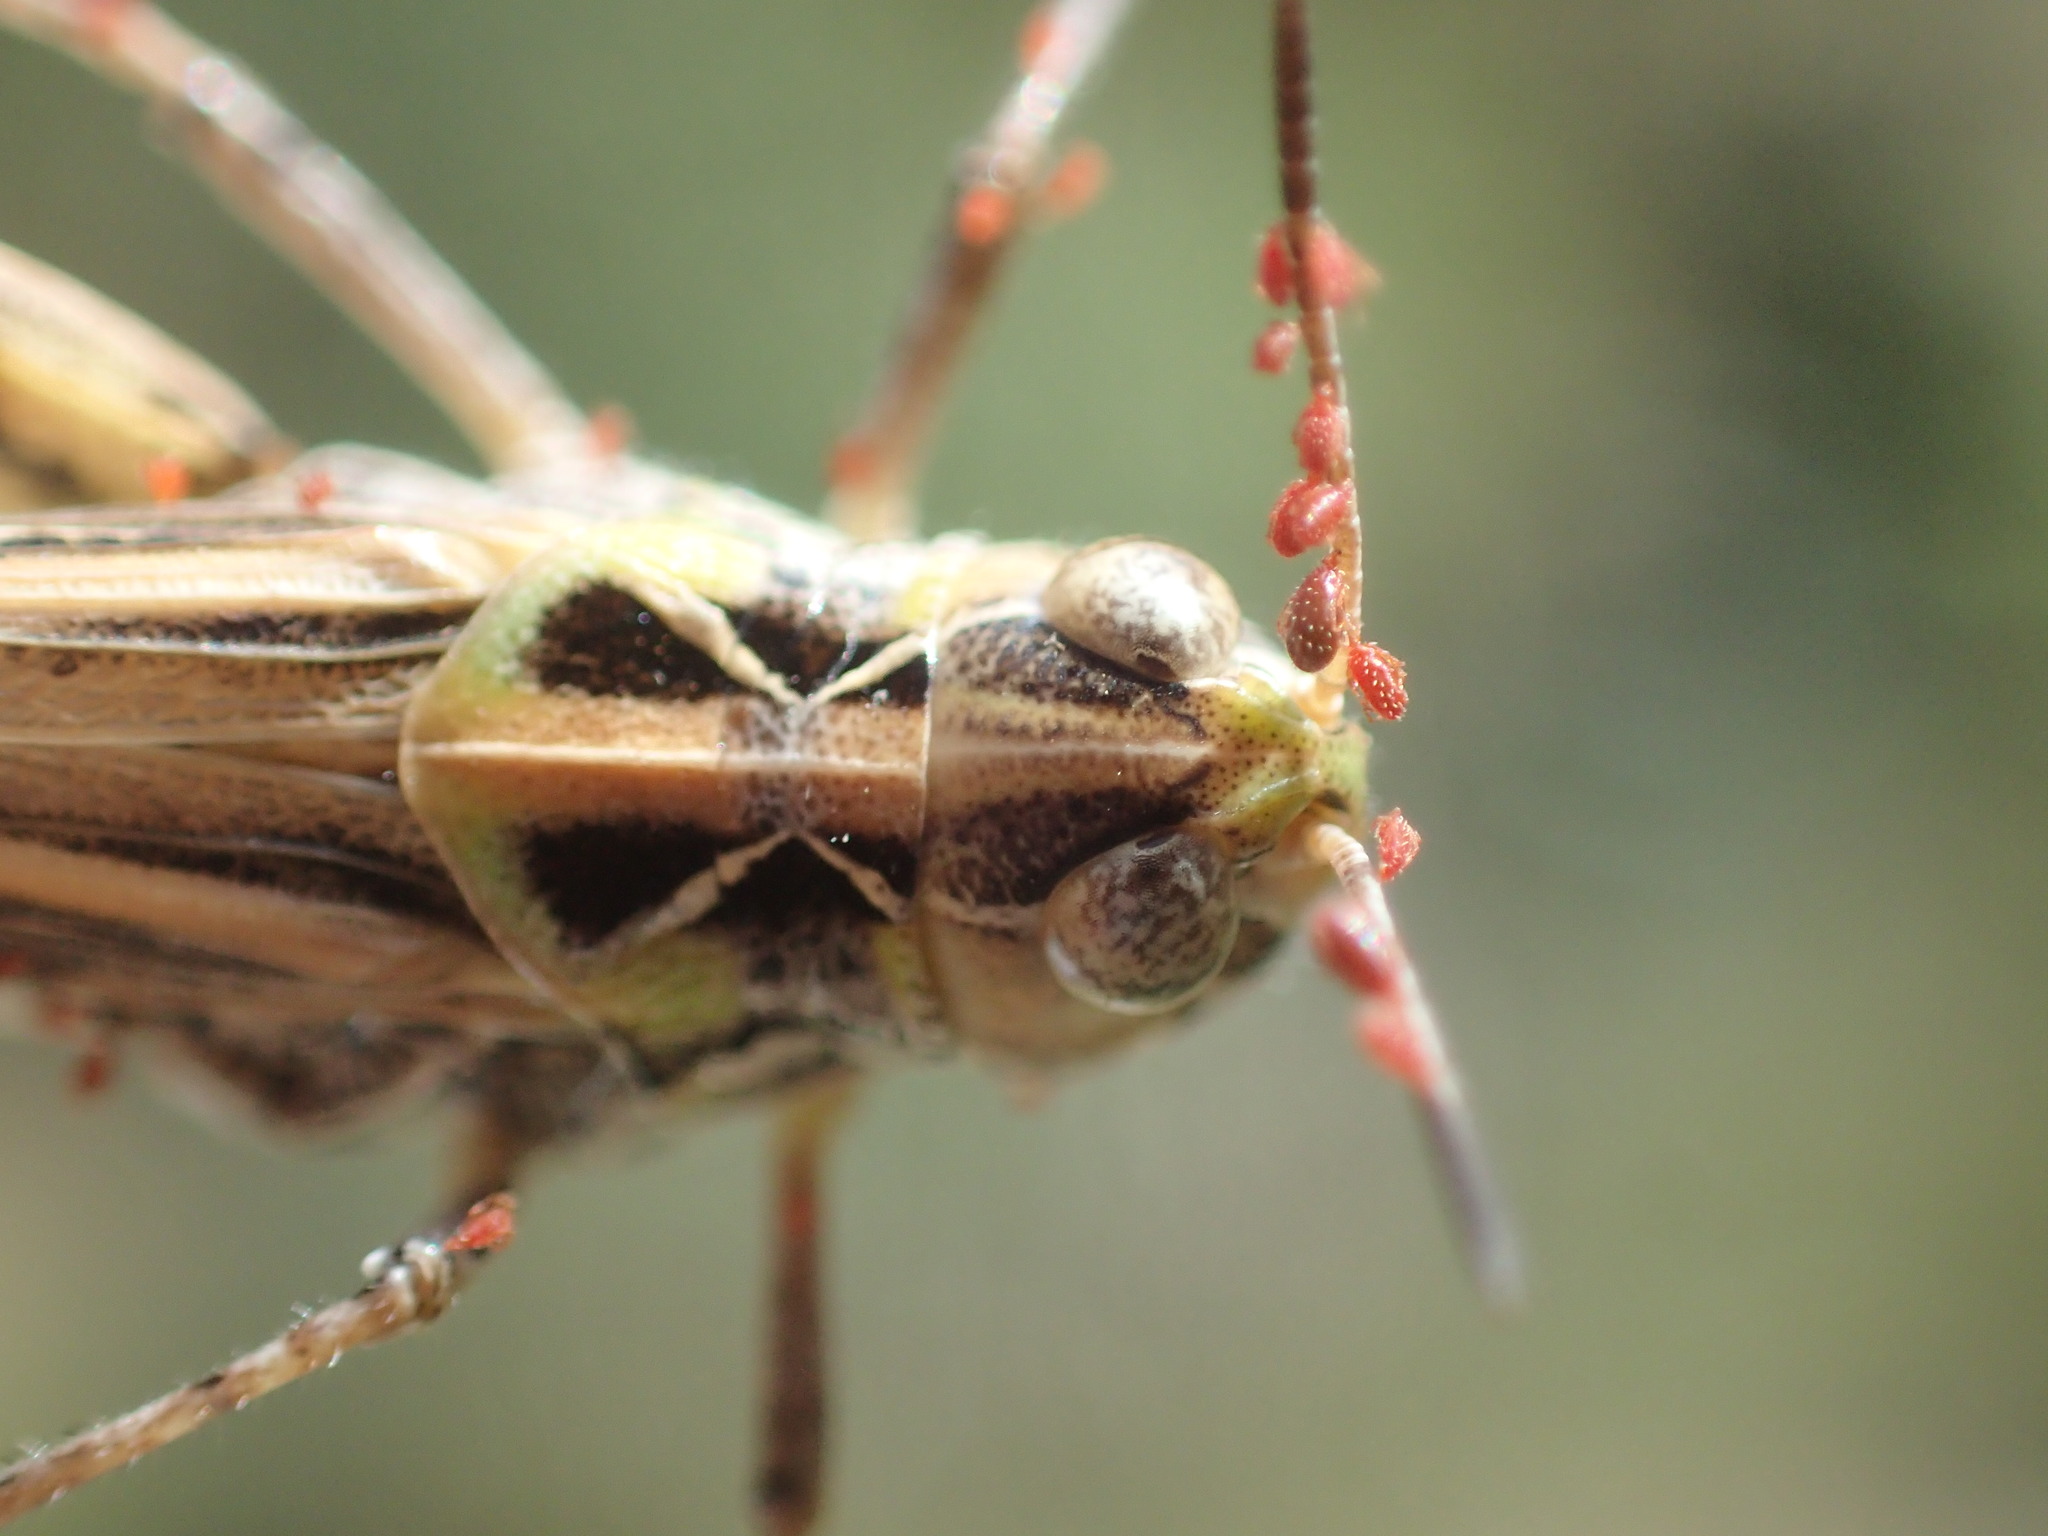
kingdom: Animalia
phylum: Arthropoda
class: Insecta
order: Orthoptera
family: Acrididae
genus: Austroicetes
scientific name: Austroicetes vulgaris
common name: Southeastern austroicetes
